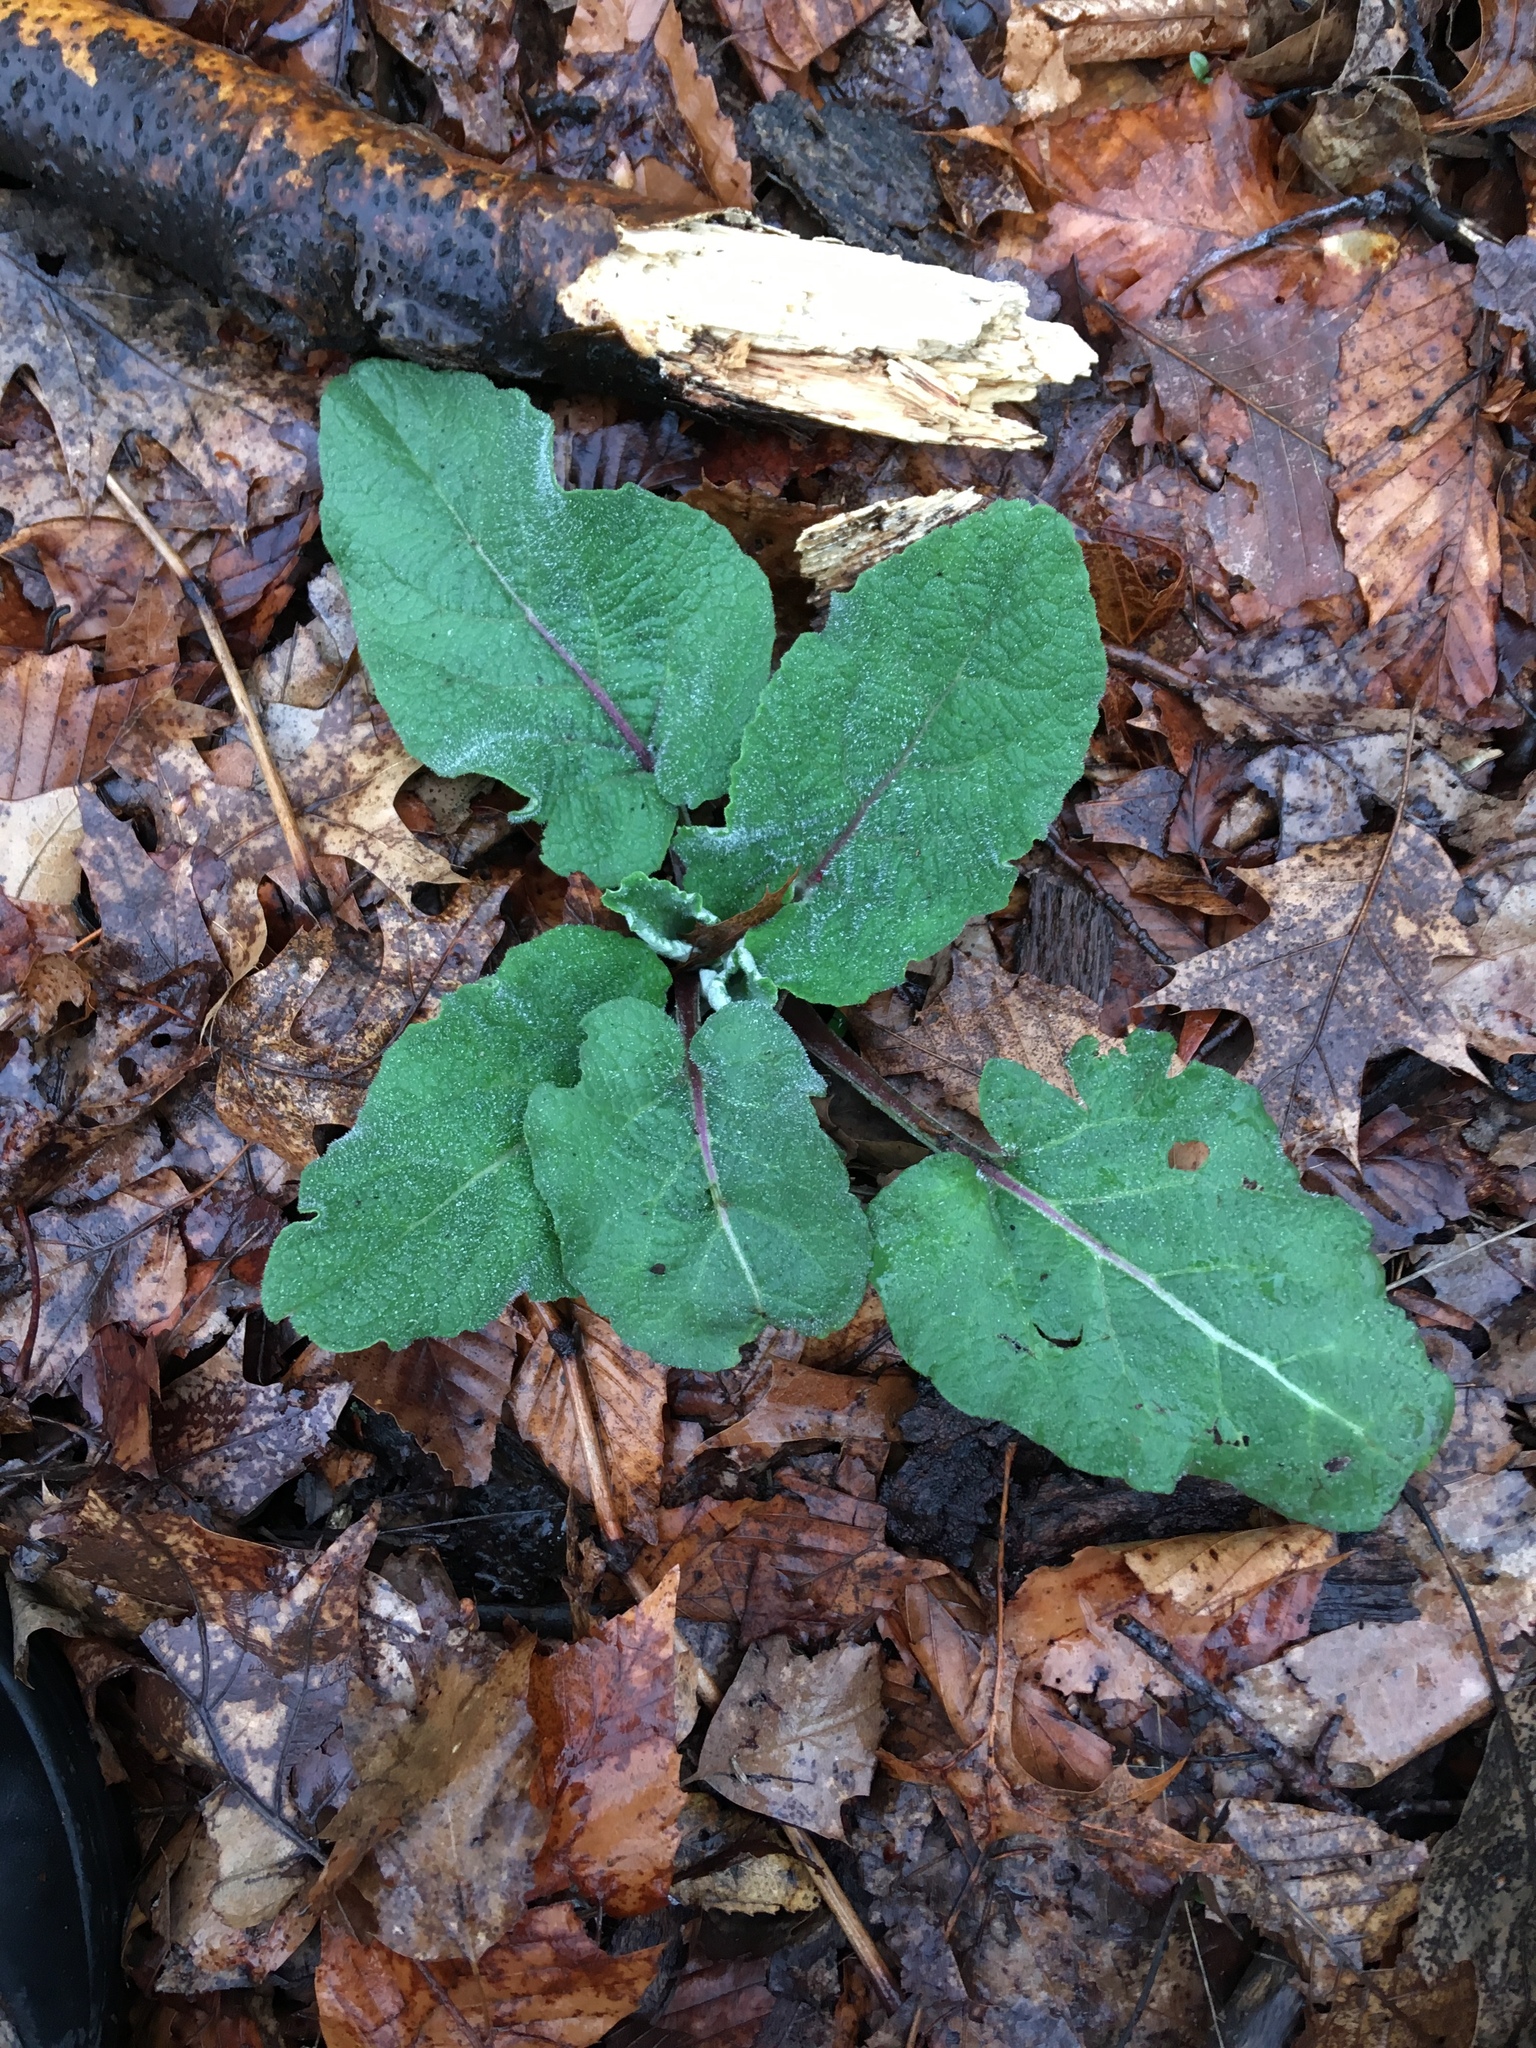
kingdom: Plantae
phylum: Tracheophyta
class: Magnoliopsida
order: Asterales
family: Asteraceae
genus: Arctium
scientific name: Arctium
